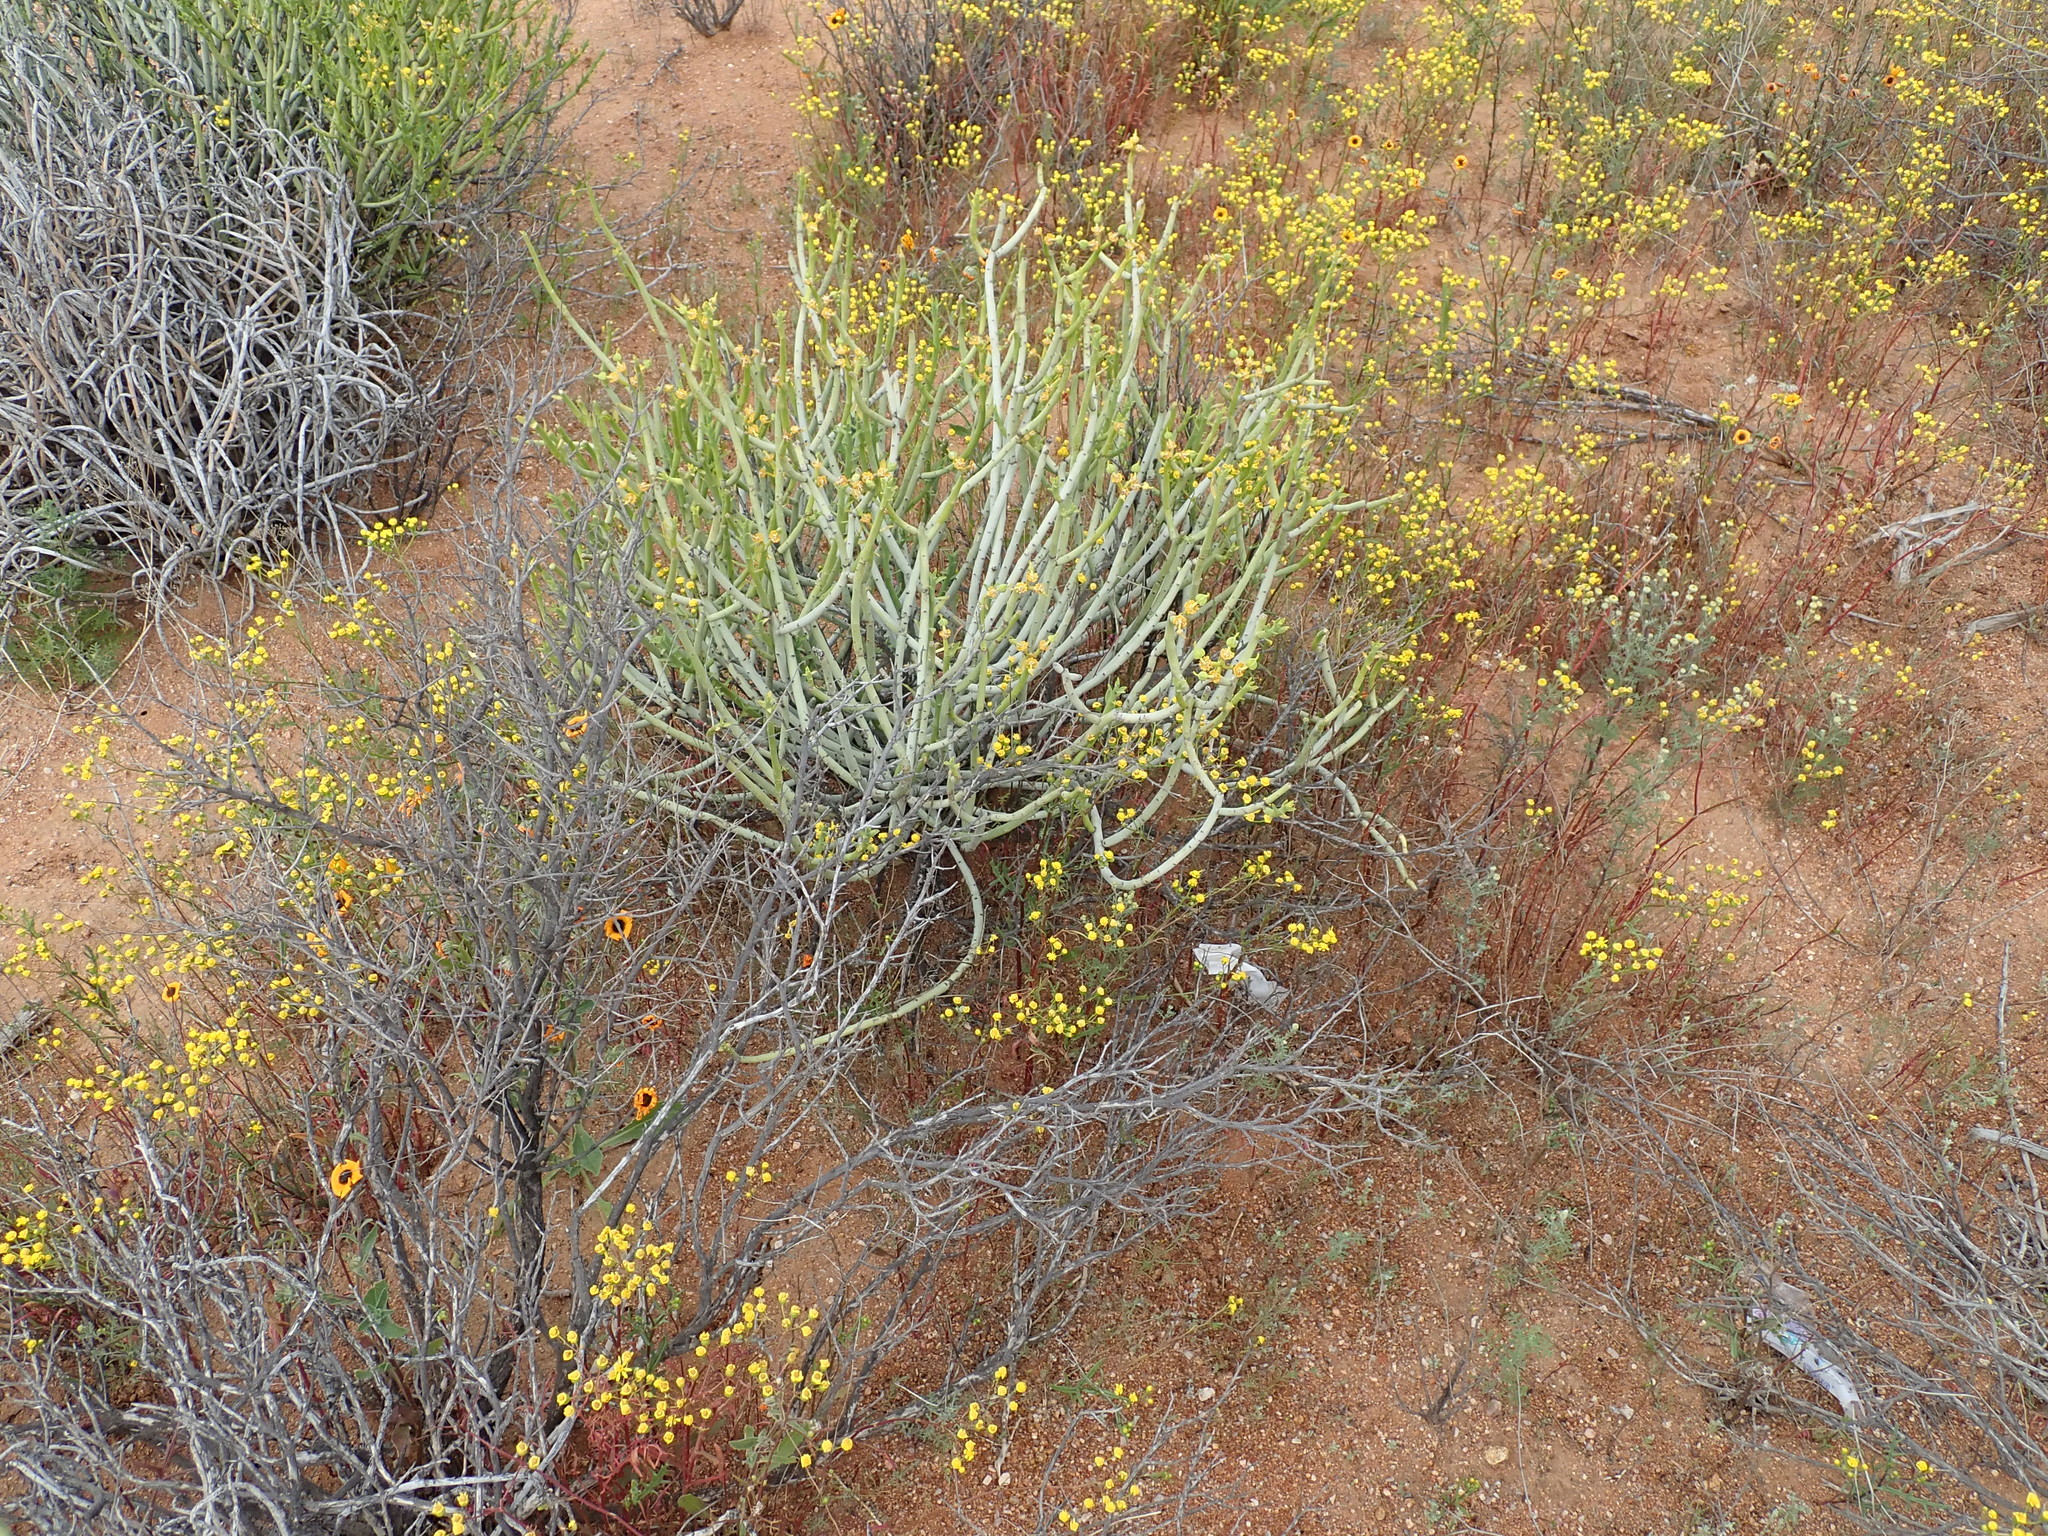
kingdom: Plantae
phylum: Tracheophyta
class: Magnoliopsida
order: Malpighiales
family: Euphorbiaceae
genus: Euphorbia
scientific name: Euphorbia mauritanica
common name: Jackal's-food
